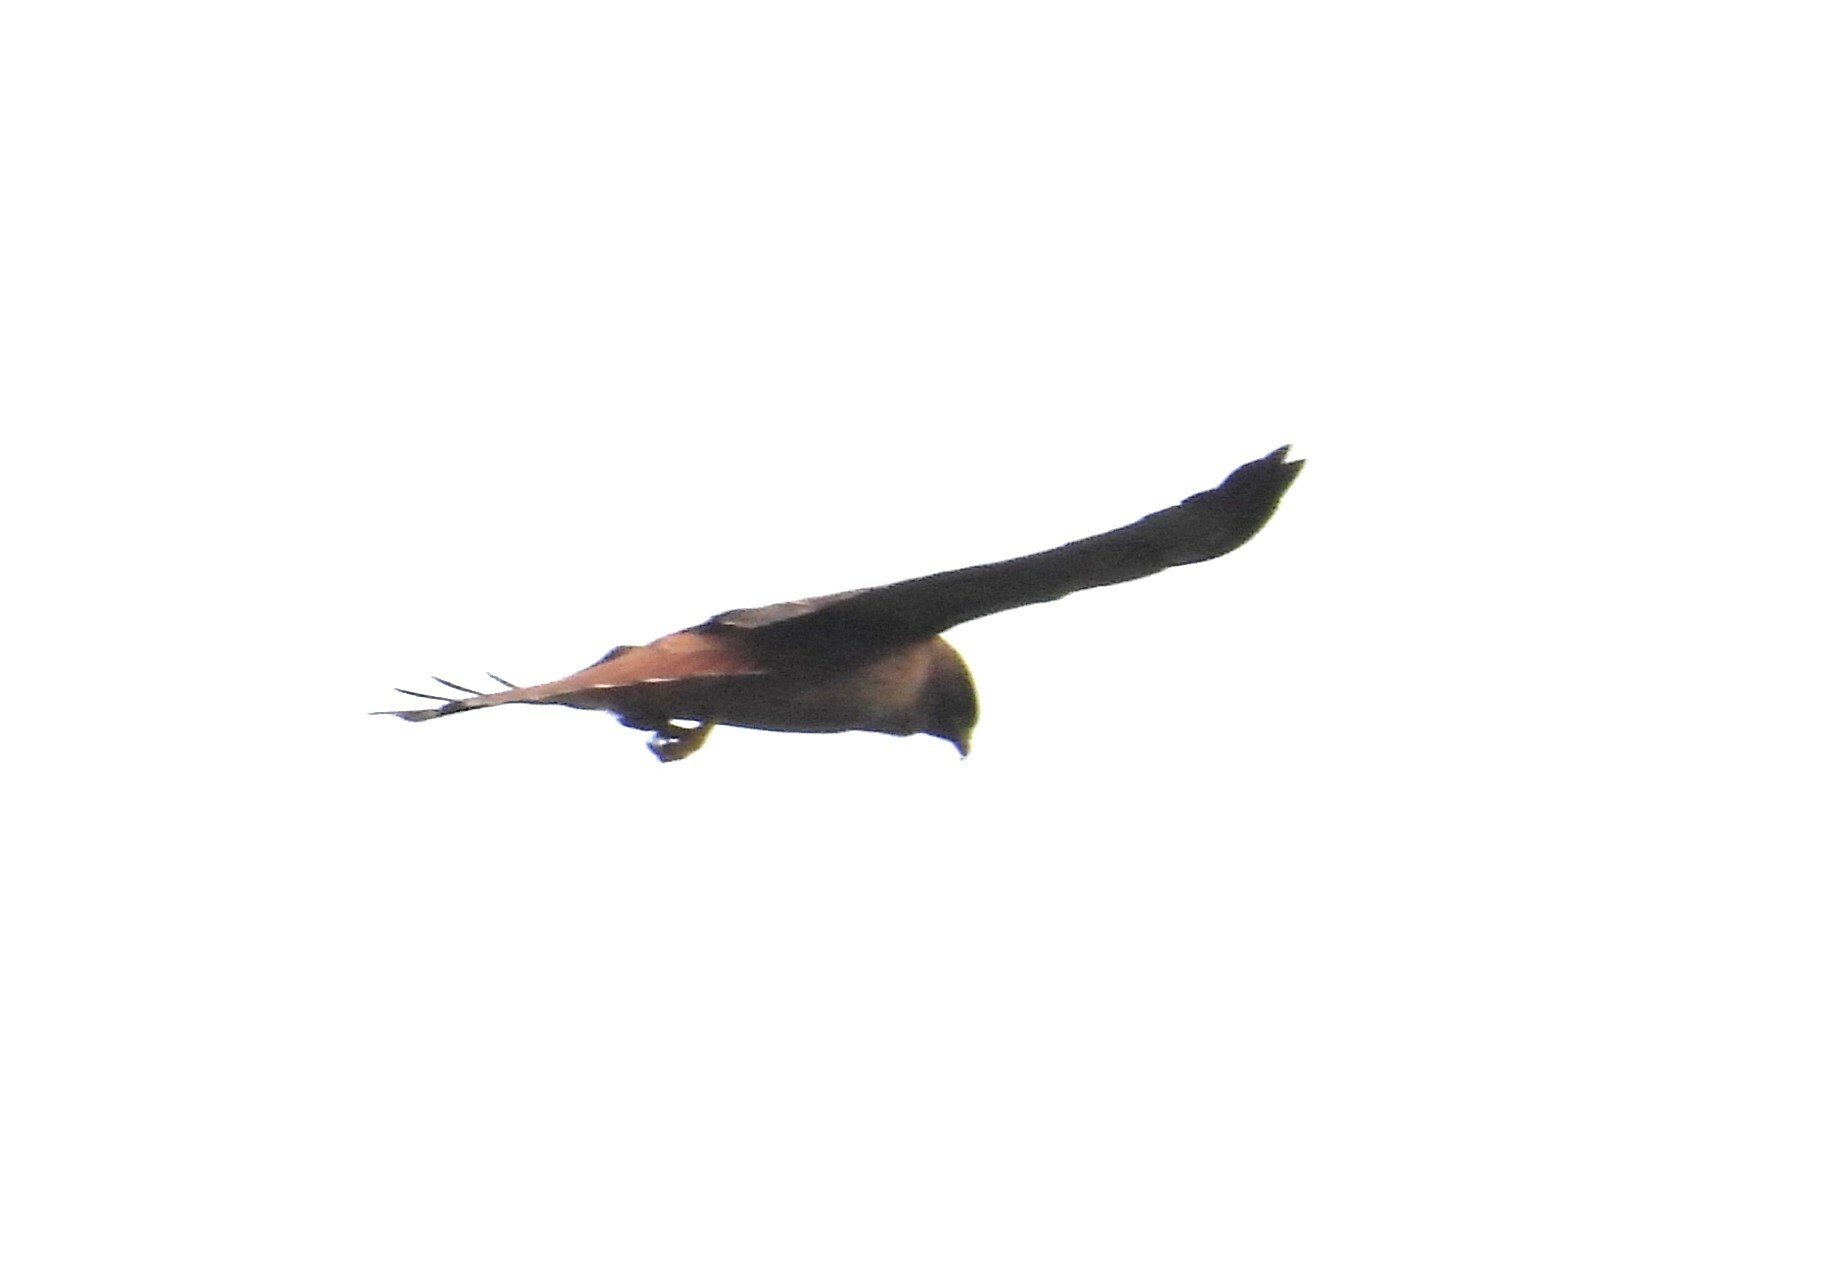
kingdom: Animalia
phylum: Chordata
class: Aves
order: Accipitriformes
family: Accipitridae
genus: Buteo
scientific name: Buteo jamaicensis
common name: Red-tailed hawk
